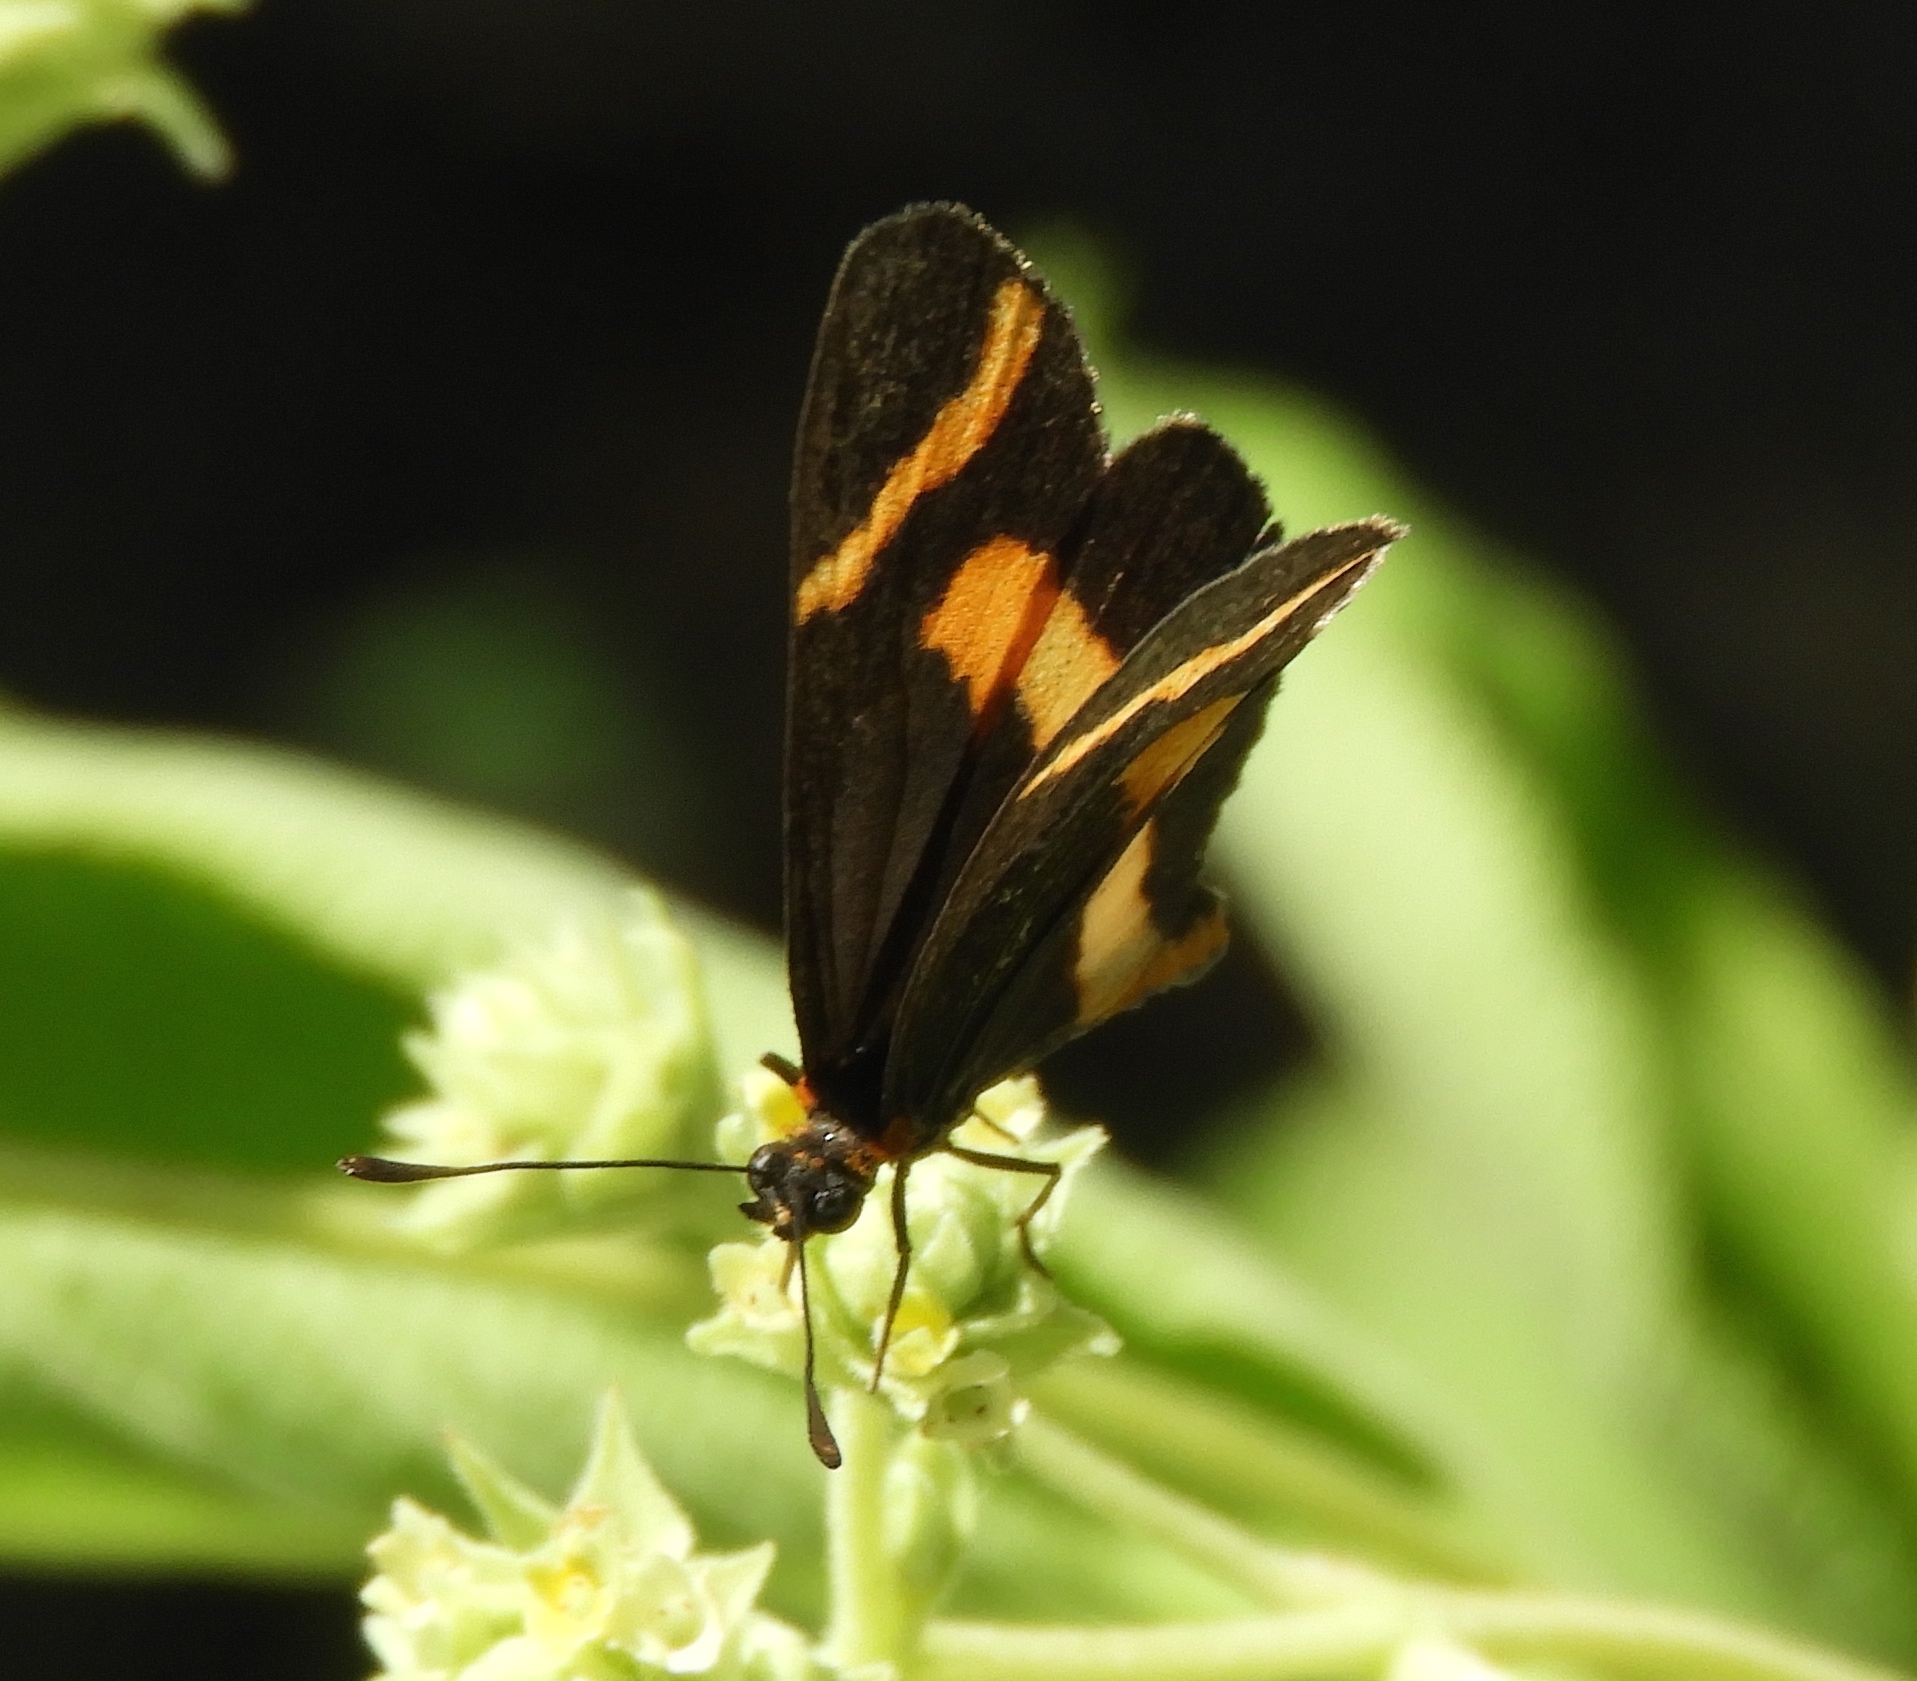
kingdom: Animalia
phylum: Arthropoda
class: Insecta
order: Lepidoptera
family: Nymphalidae
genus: Microtia
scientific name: Microtia elva
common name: Elf
